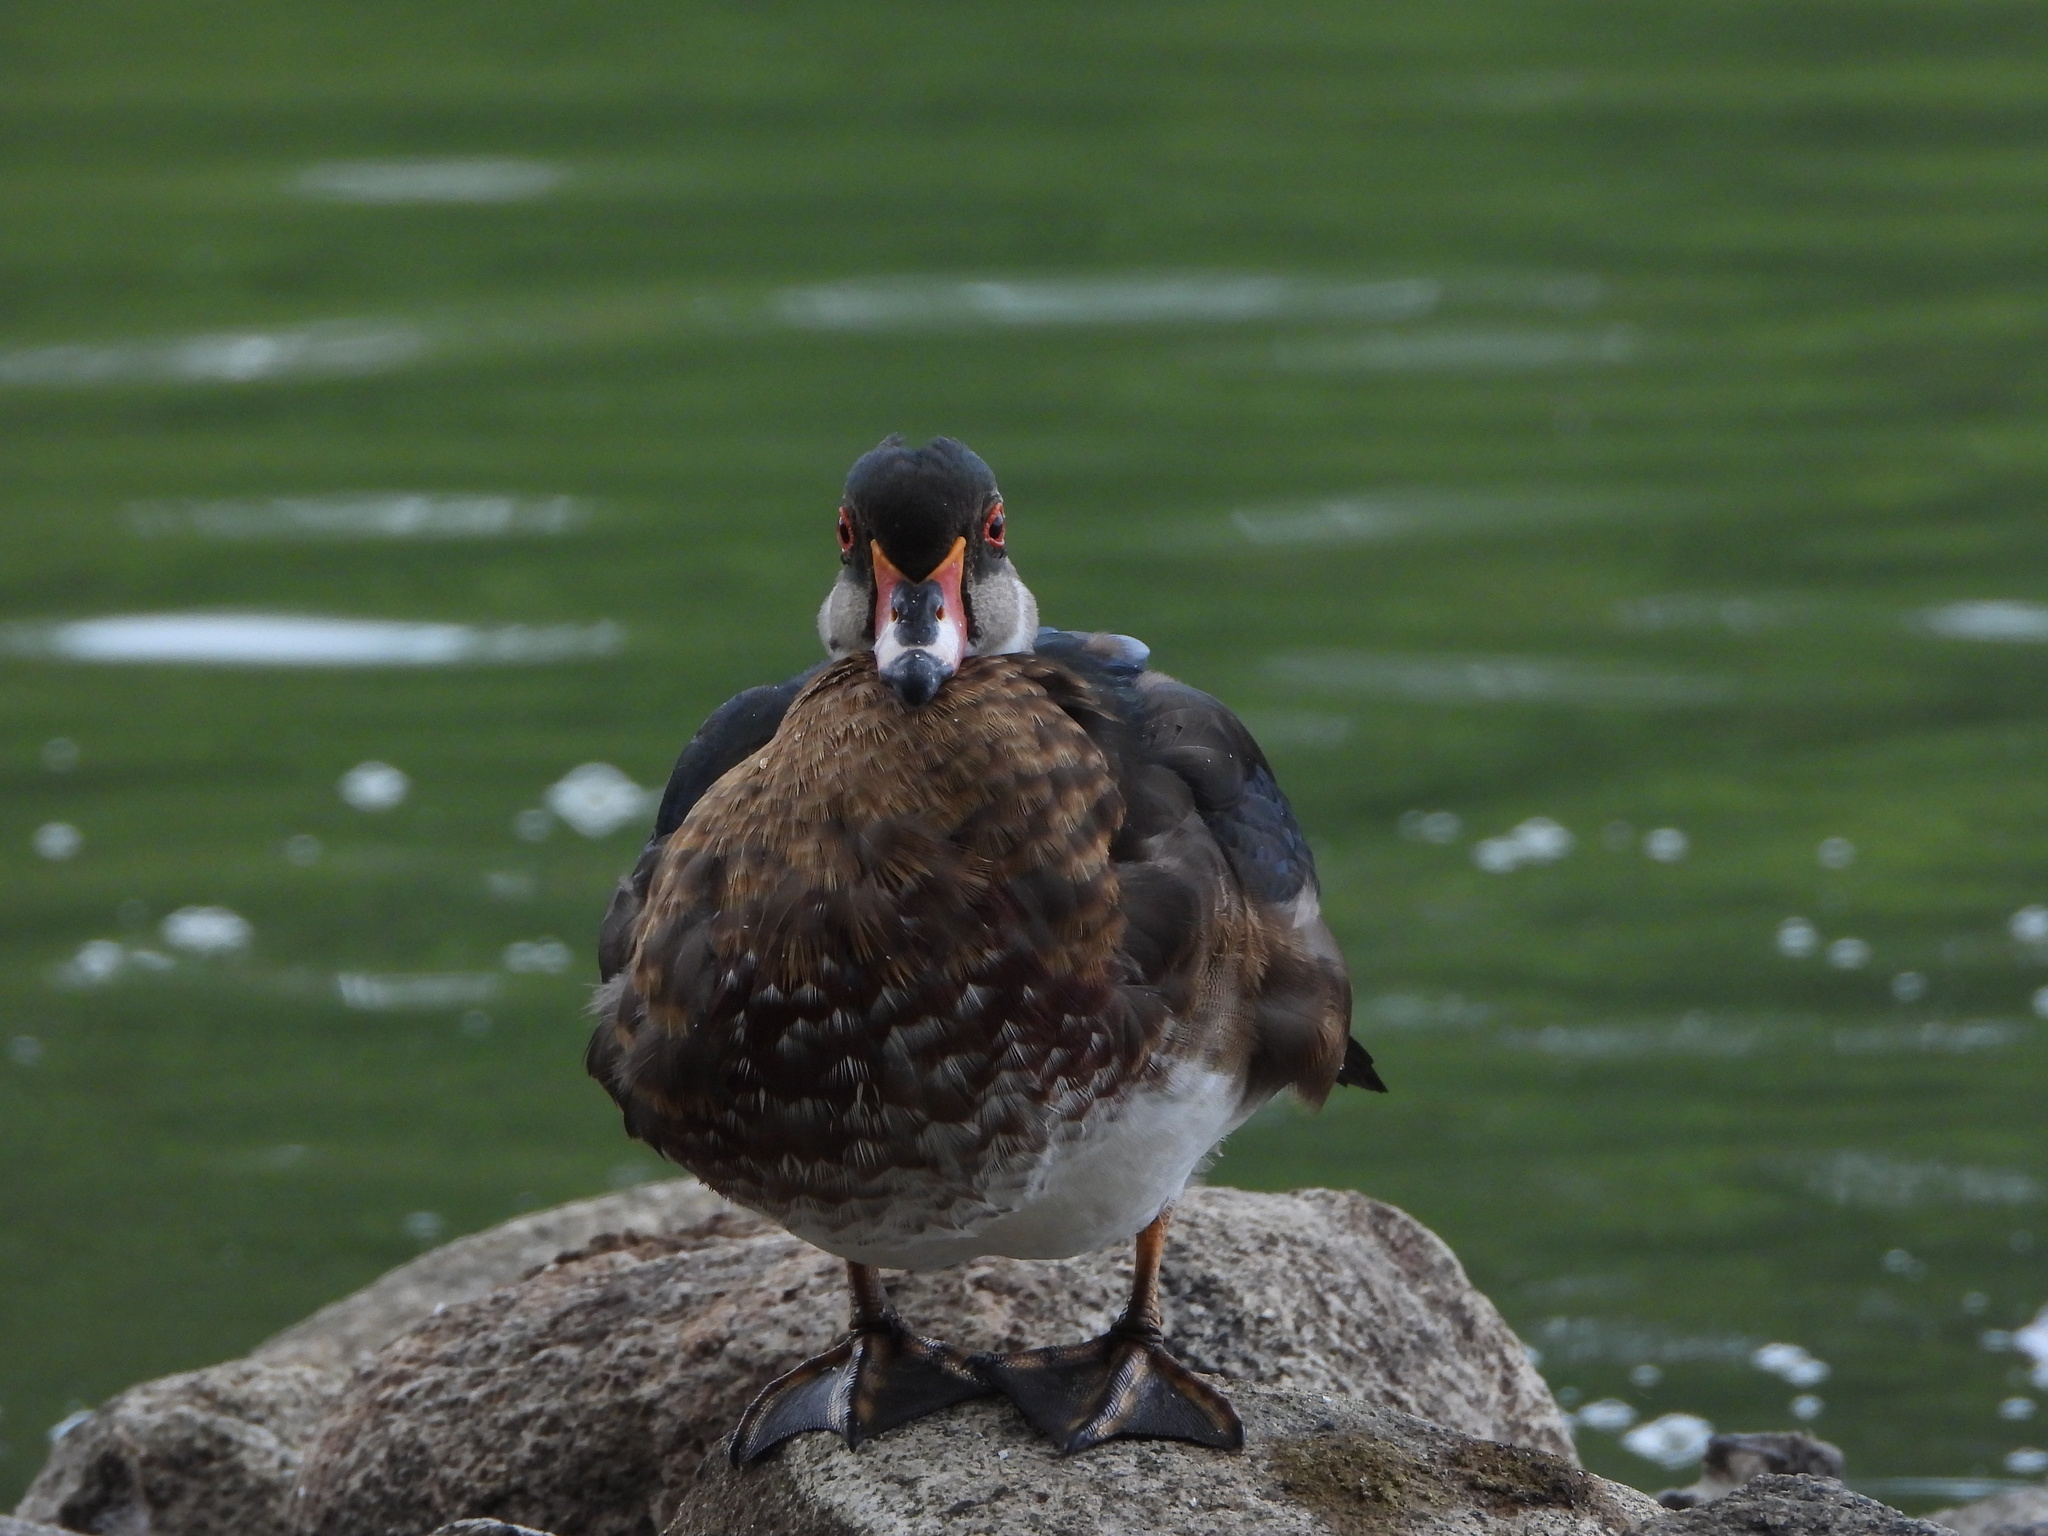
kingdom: Animalia
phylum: Chordata
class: Aves
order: Anseriformes
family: Anatidae
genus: Aix
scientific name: Aix sponsa
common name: Wood duck
